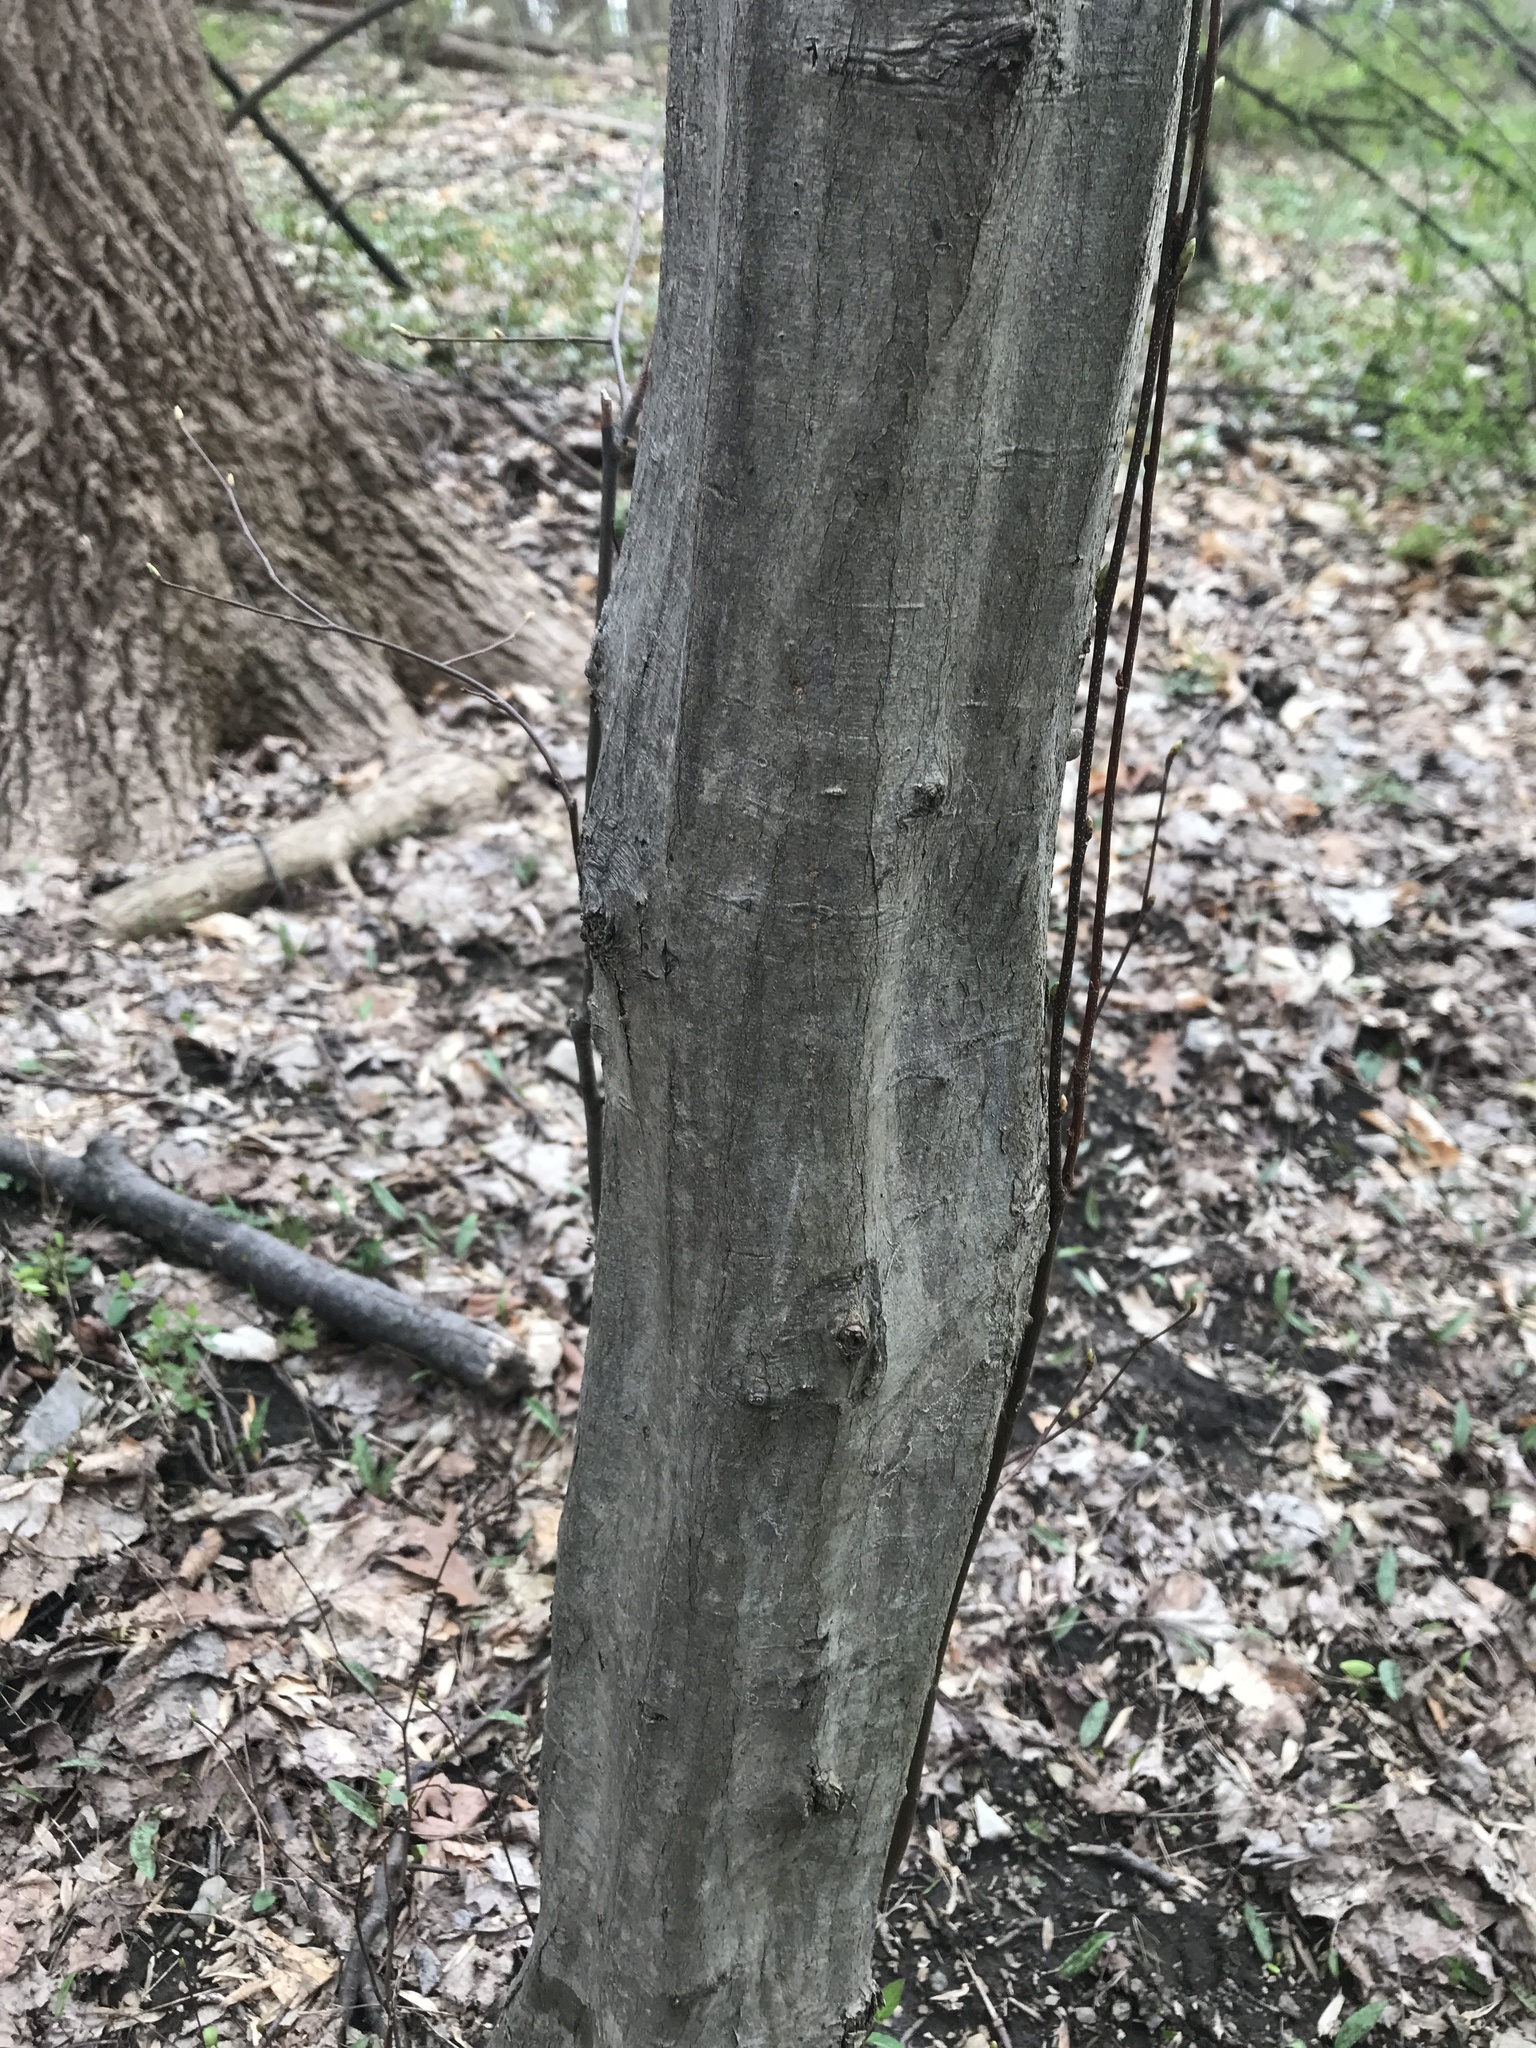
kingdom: Plantae
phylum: Tracheophyta
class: Magnoliopsida
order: Fagales
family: Betulaceae
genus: Carpinus
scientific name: Carpinus caroliniana
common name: American hornbeam
